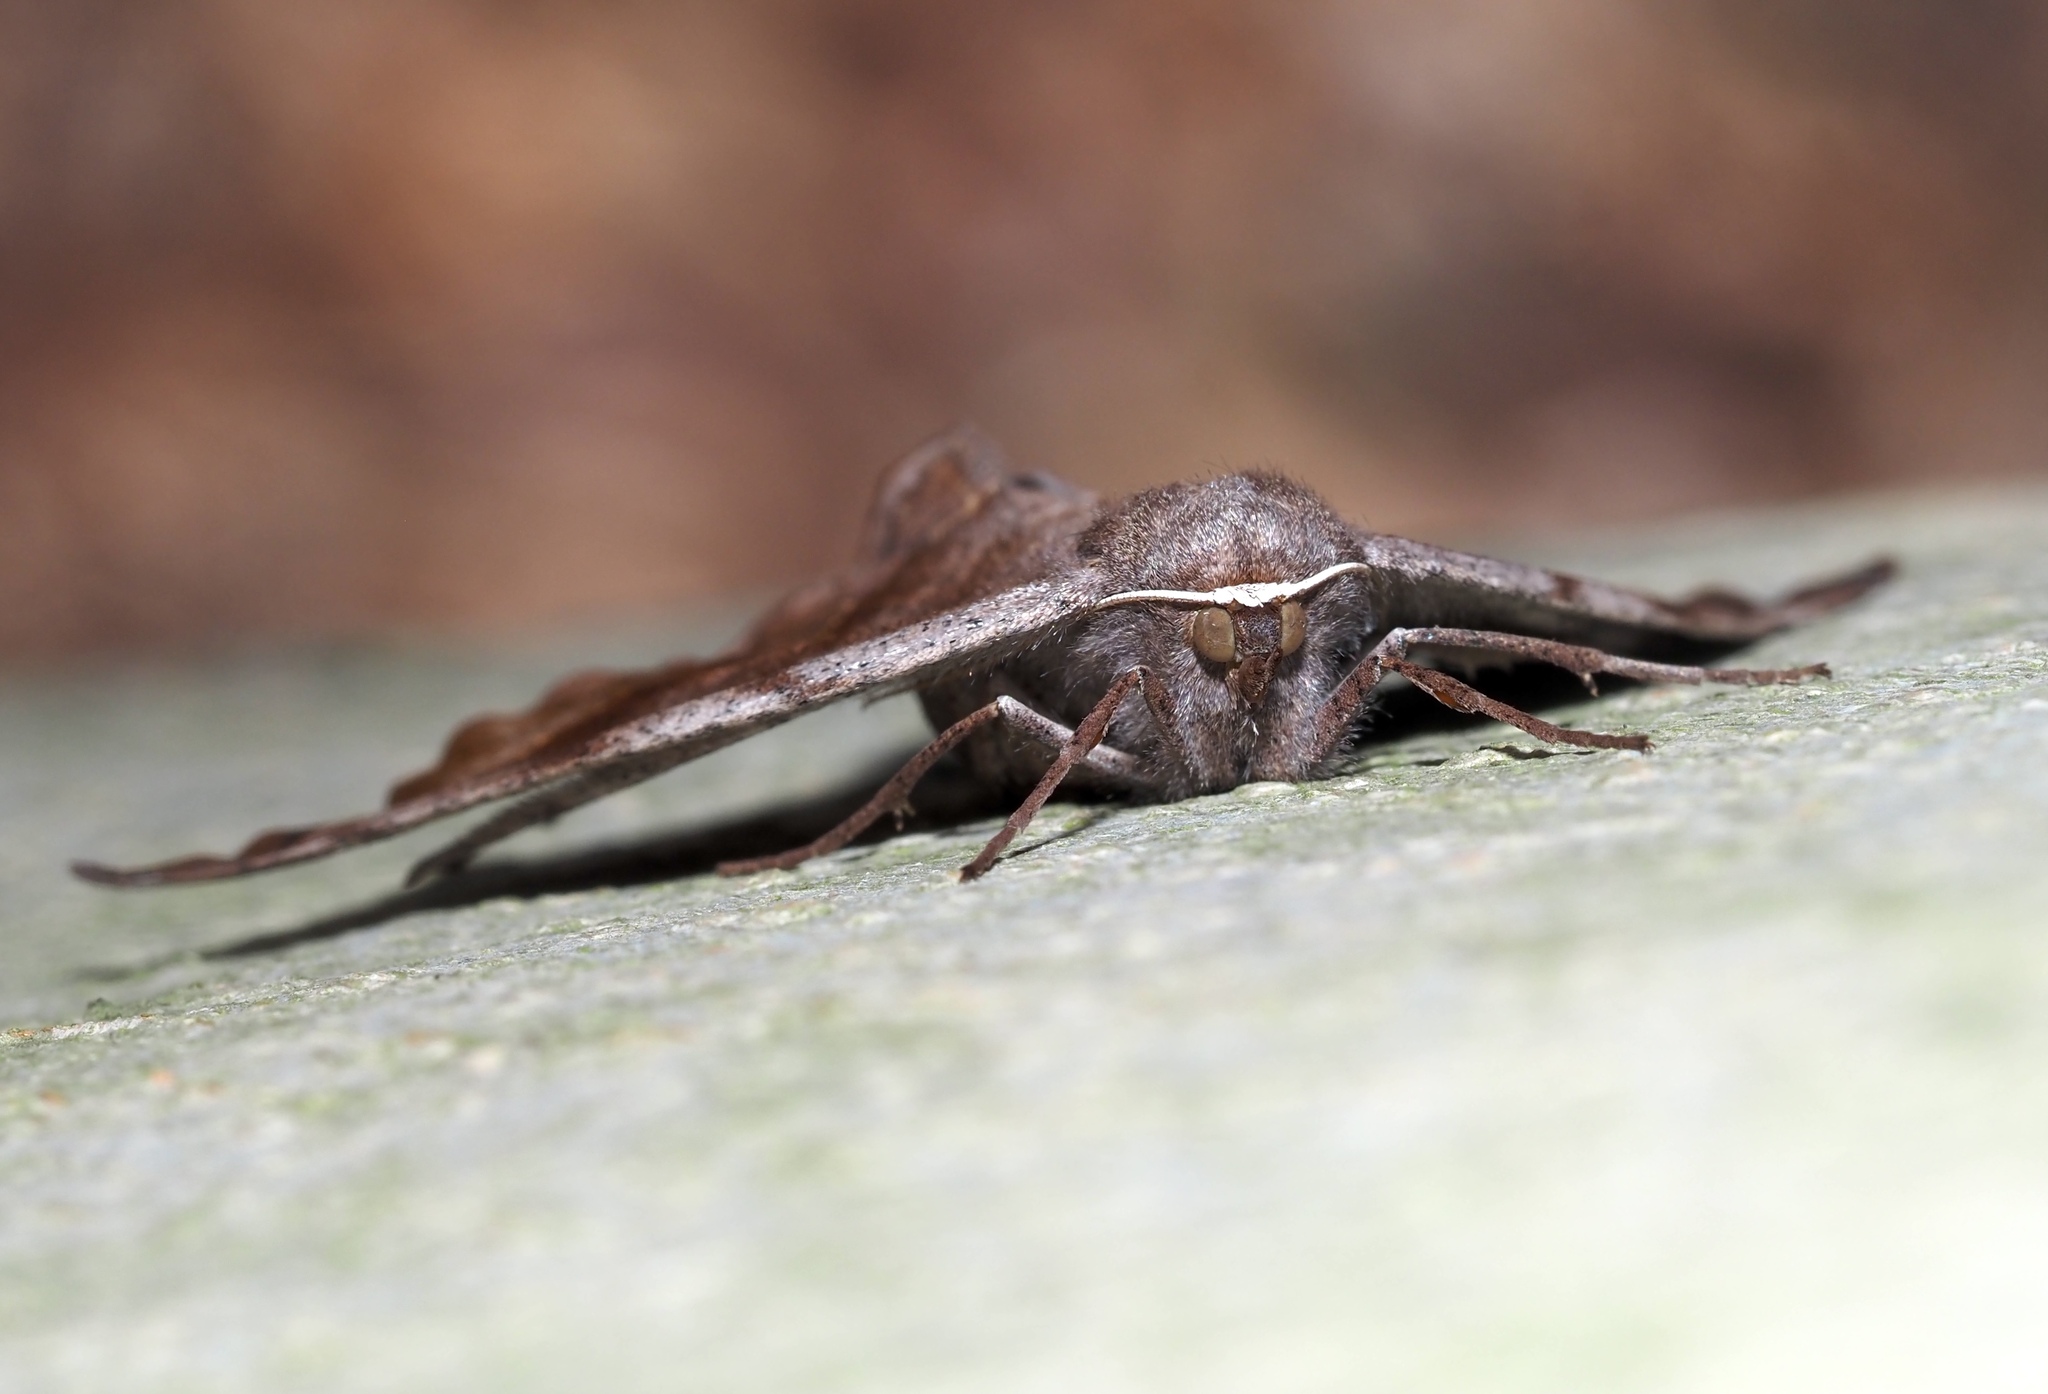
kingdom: Animalia
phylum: Arthropoda
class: Insecta
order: Lepidoptera
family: Geometridae
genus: Eutrapela
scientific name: Eutrapela clemataria
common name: Curved-toothed geometer
